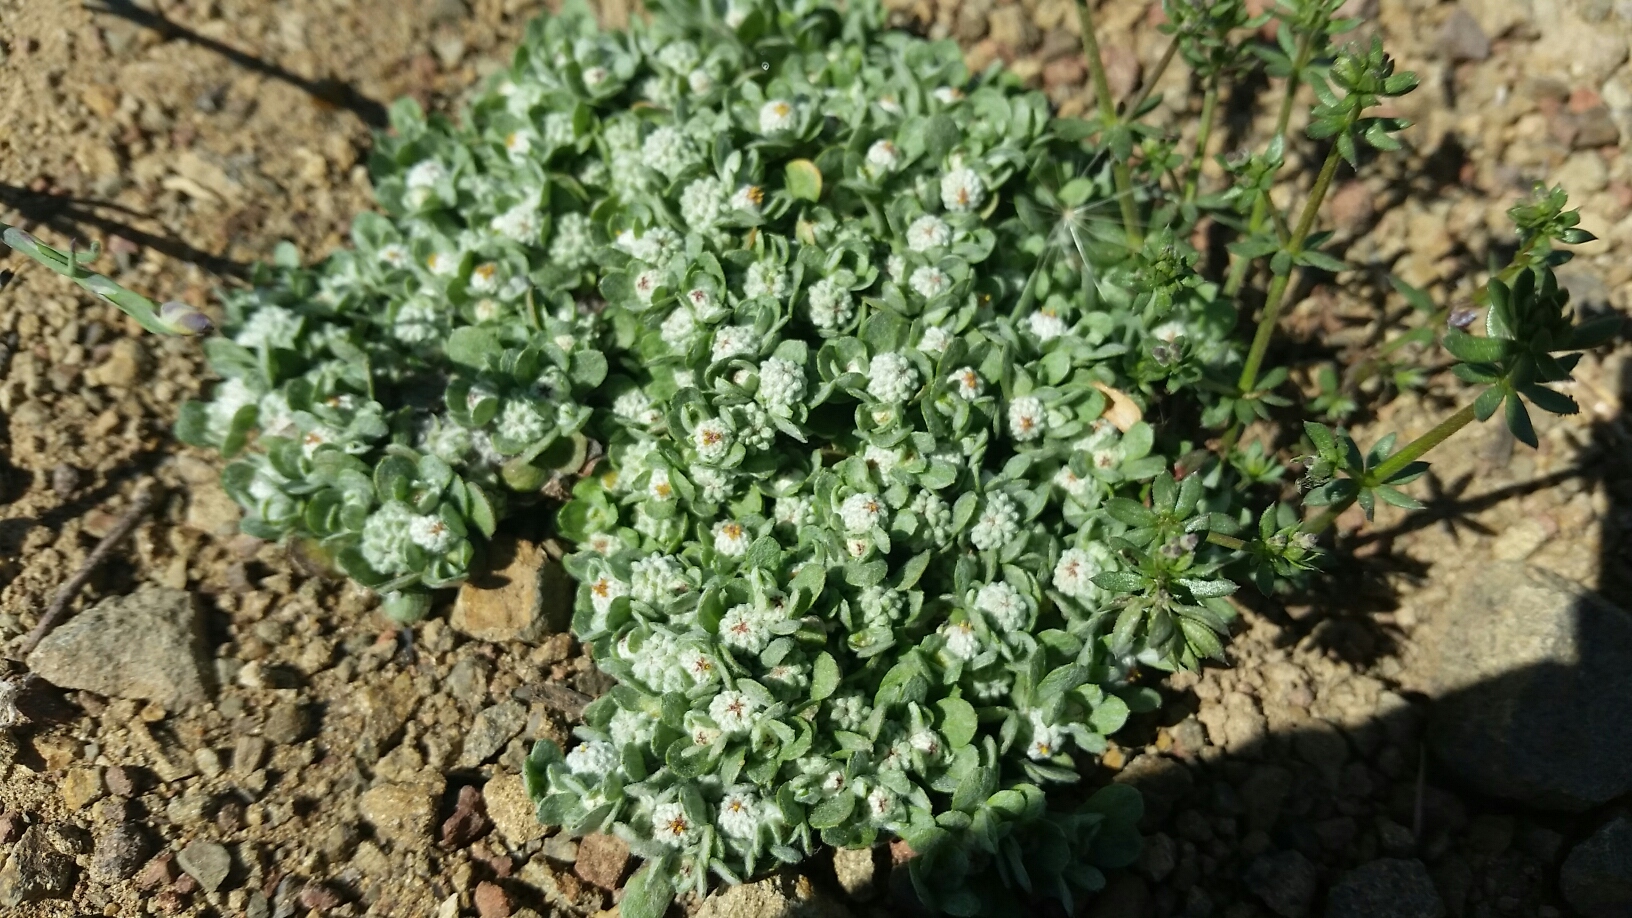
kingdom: Plantae
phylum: Tracheophyta
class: Magnoliopsida
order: Asterales
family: Asteraceae
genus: Psilocarphus
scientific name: Psilocarphus tenellus
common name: Slender woolly-marbles
